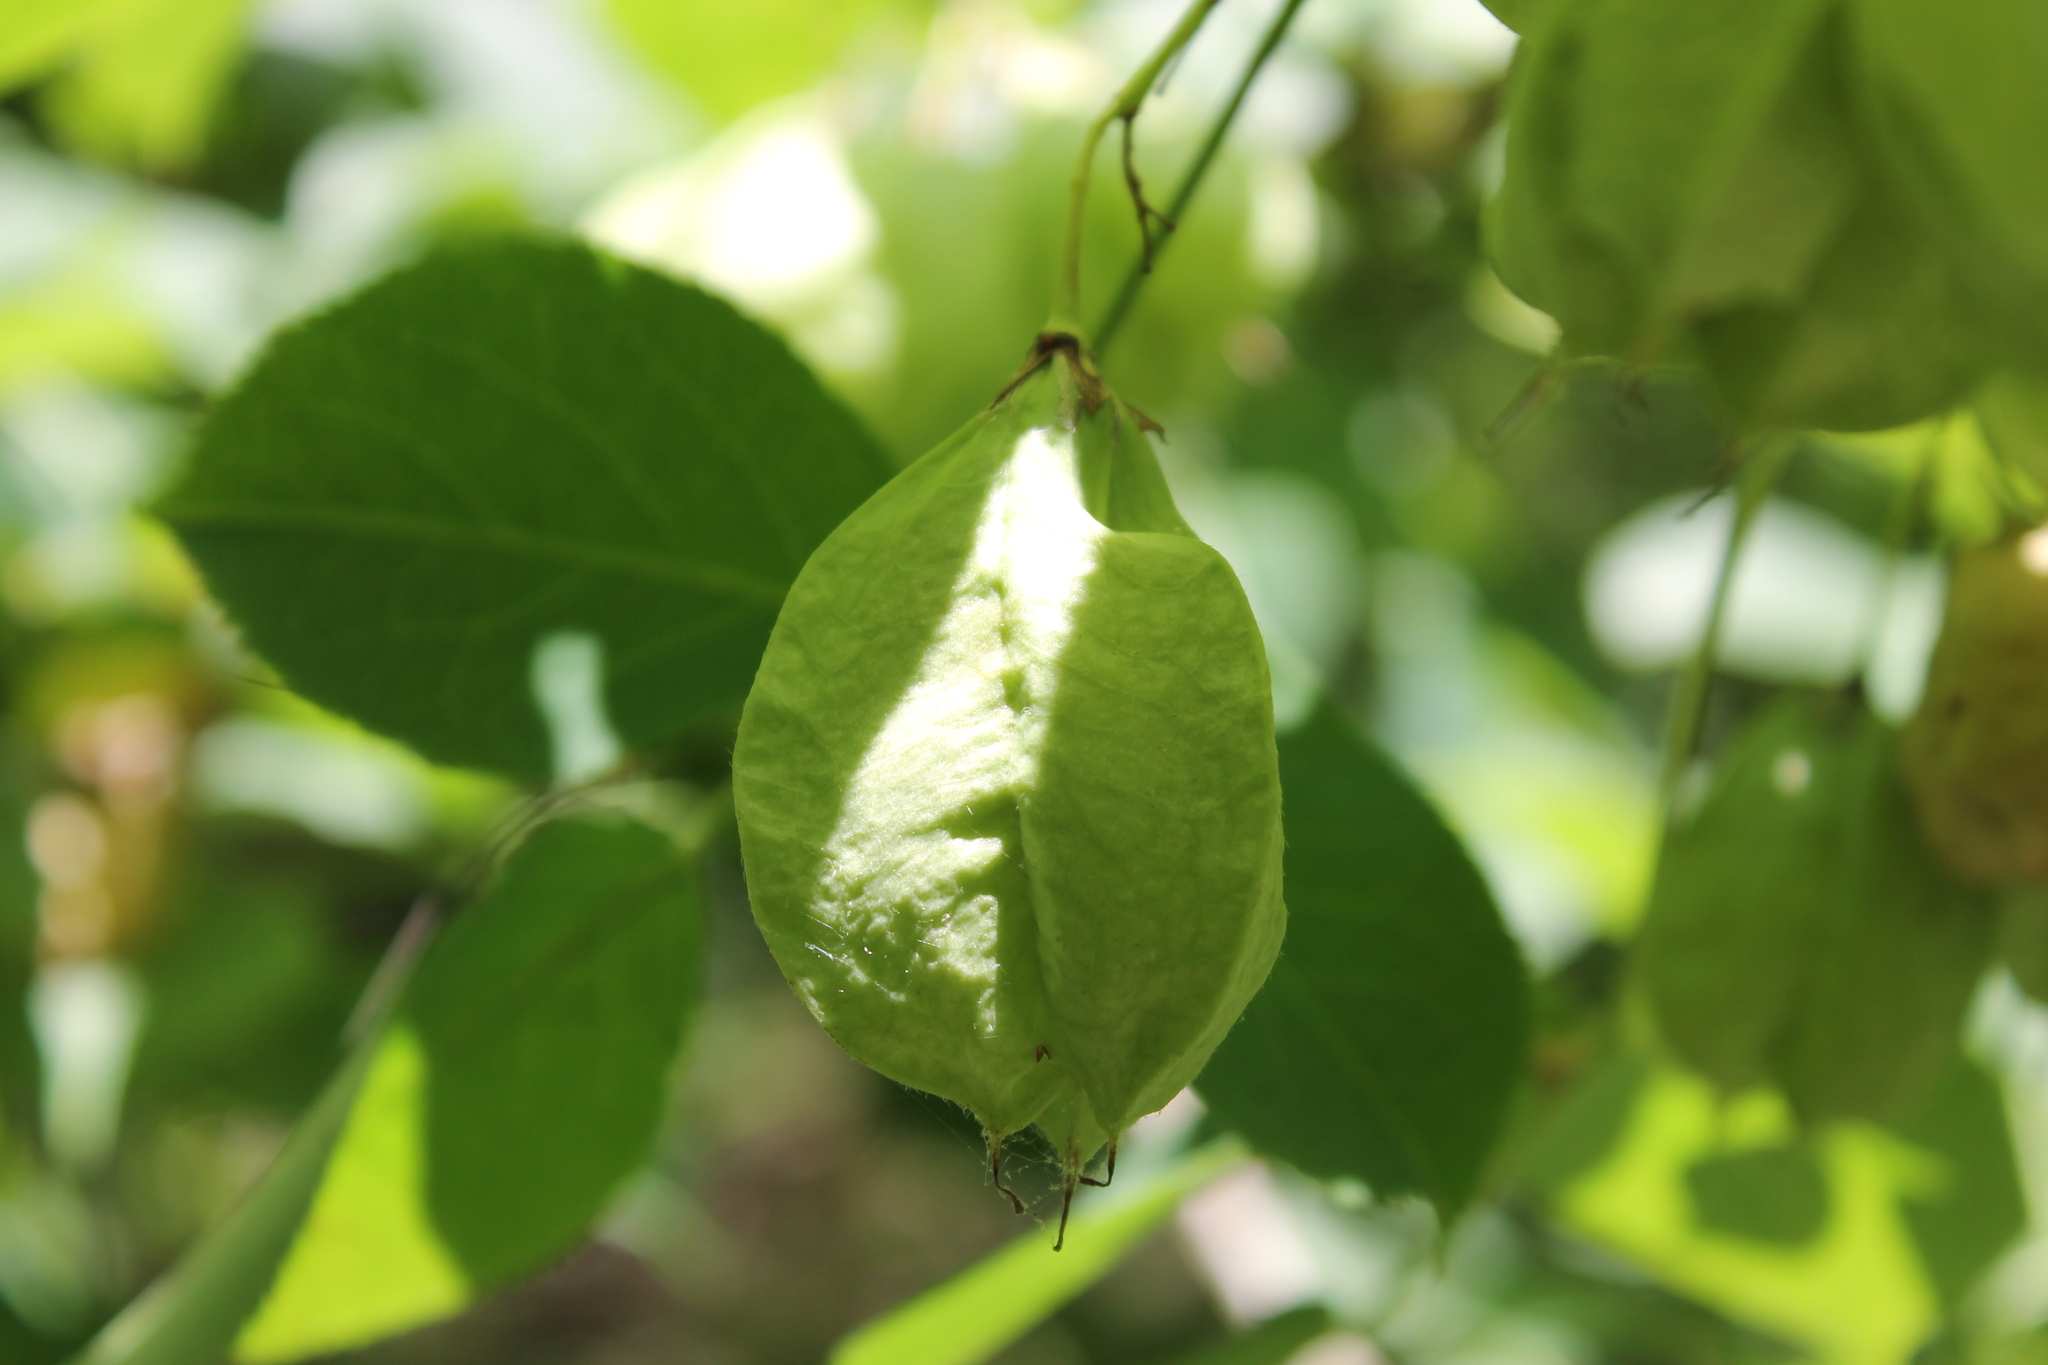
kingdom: Plantae
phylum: Tracheophyta
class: Magnoliopsida
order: Crossosomatales
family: Staphyleaceae
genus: Staphylea
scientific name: Staphylea trifolia
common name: American bladdernut
